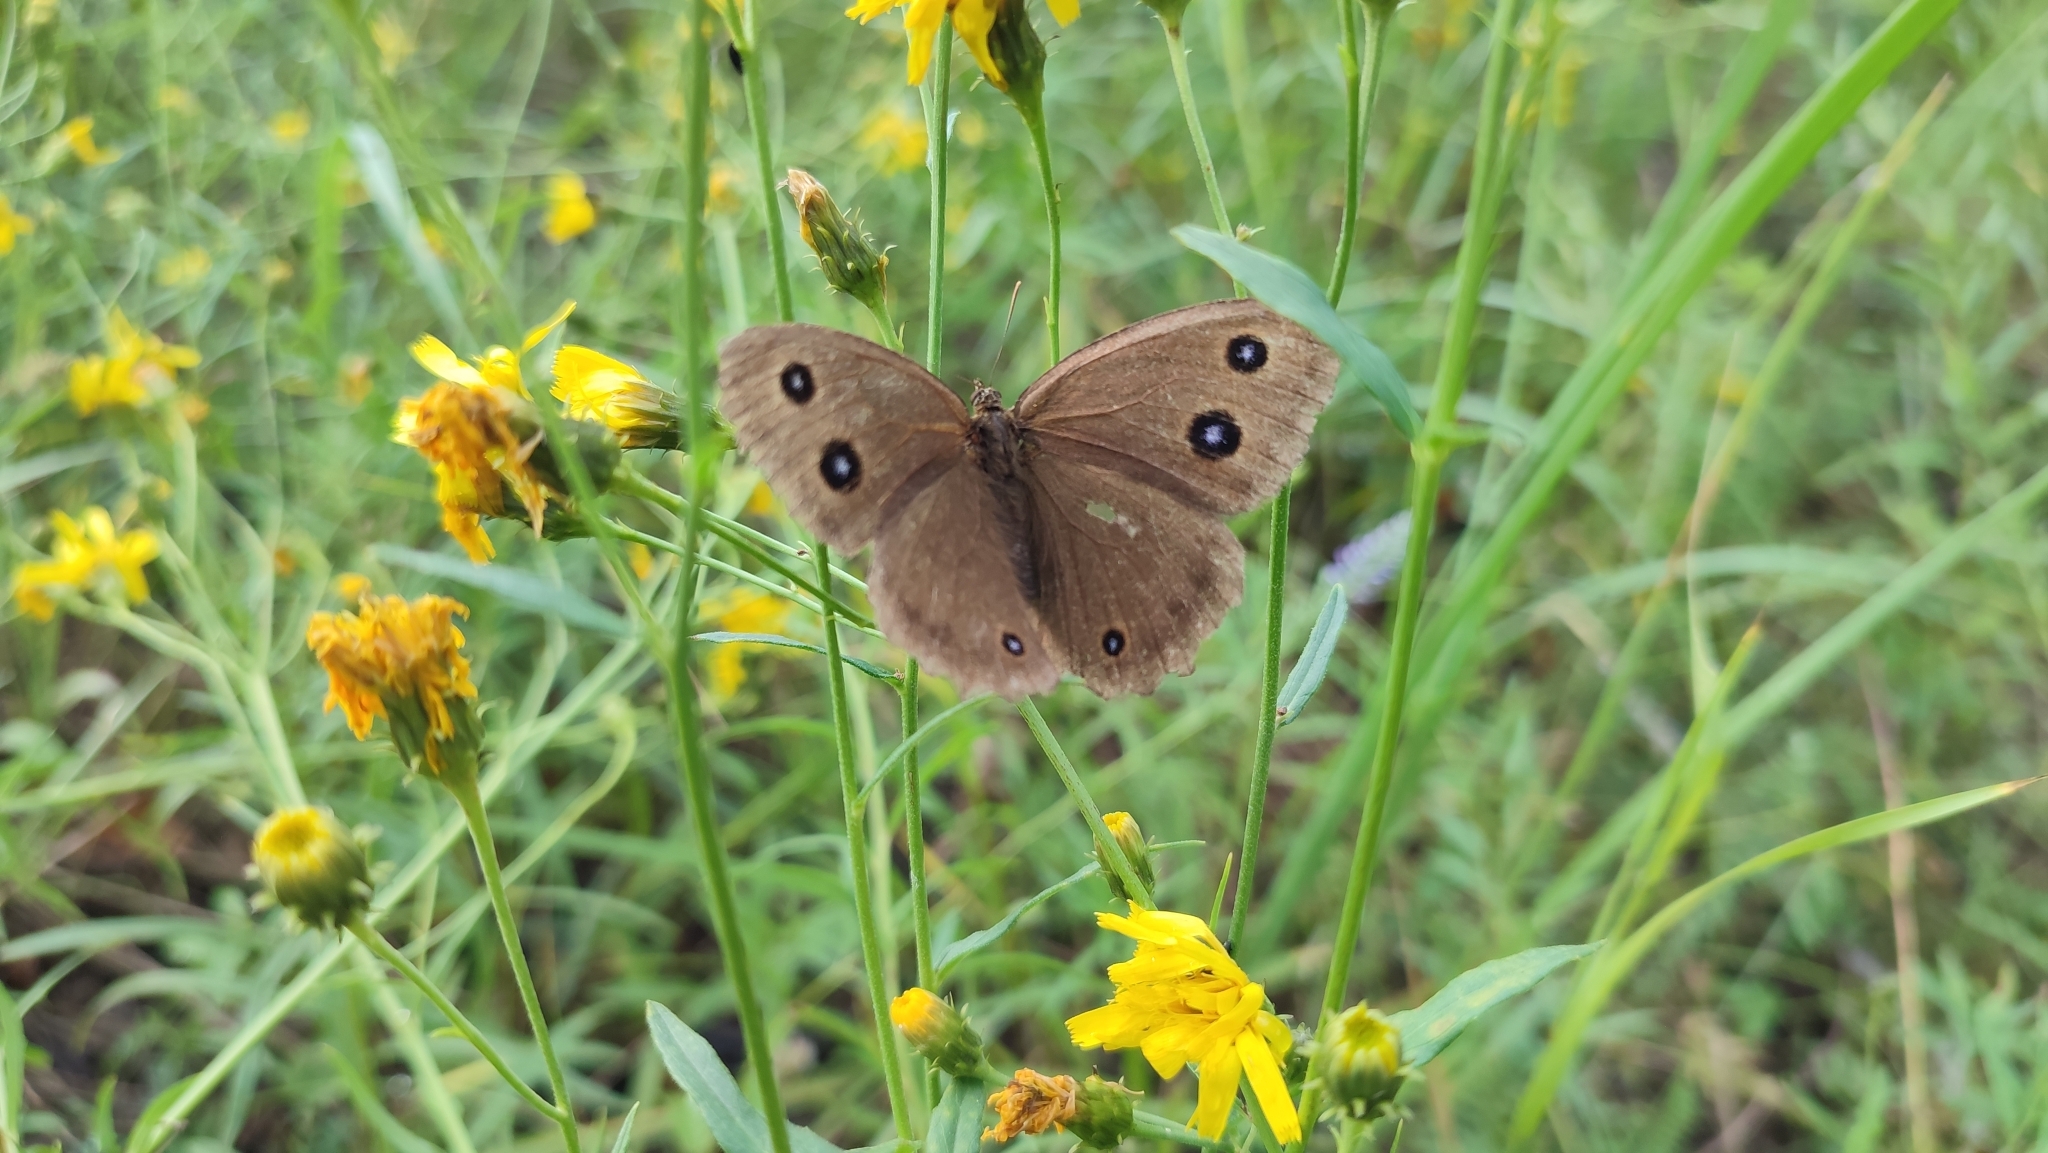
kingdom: Animalia
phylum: Arthropoda
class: Insecta
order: Lepidoptera
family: Nymphalidae
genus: Minois
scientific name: Minois dryas
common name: Dryad
